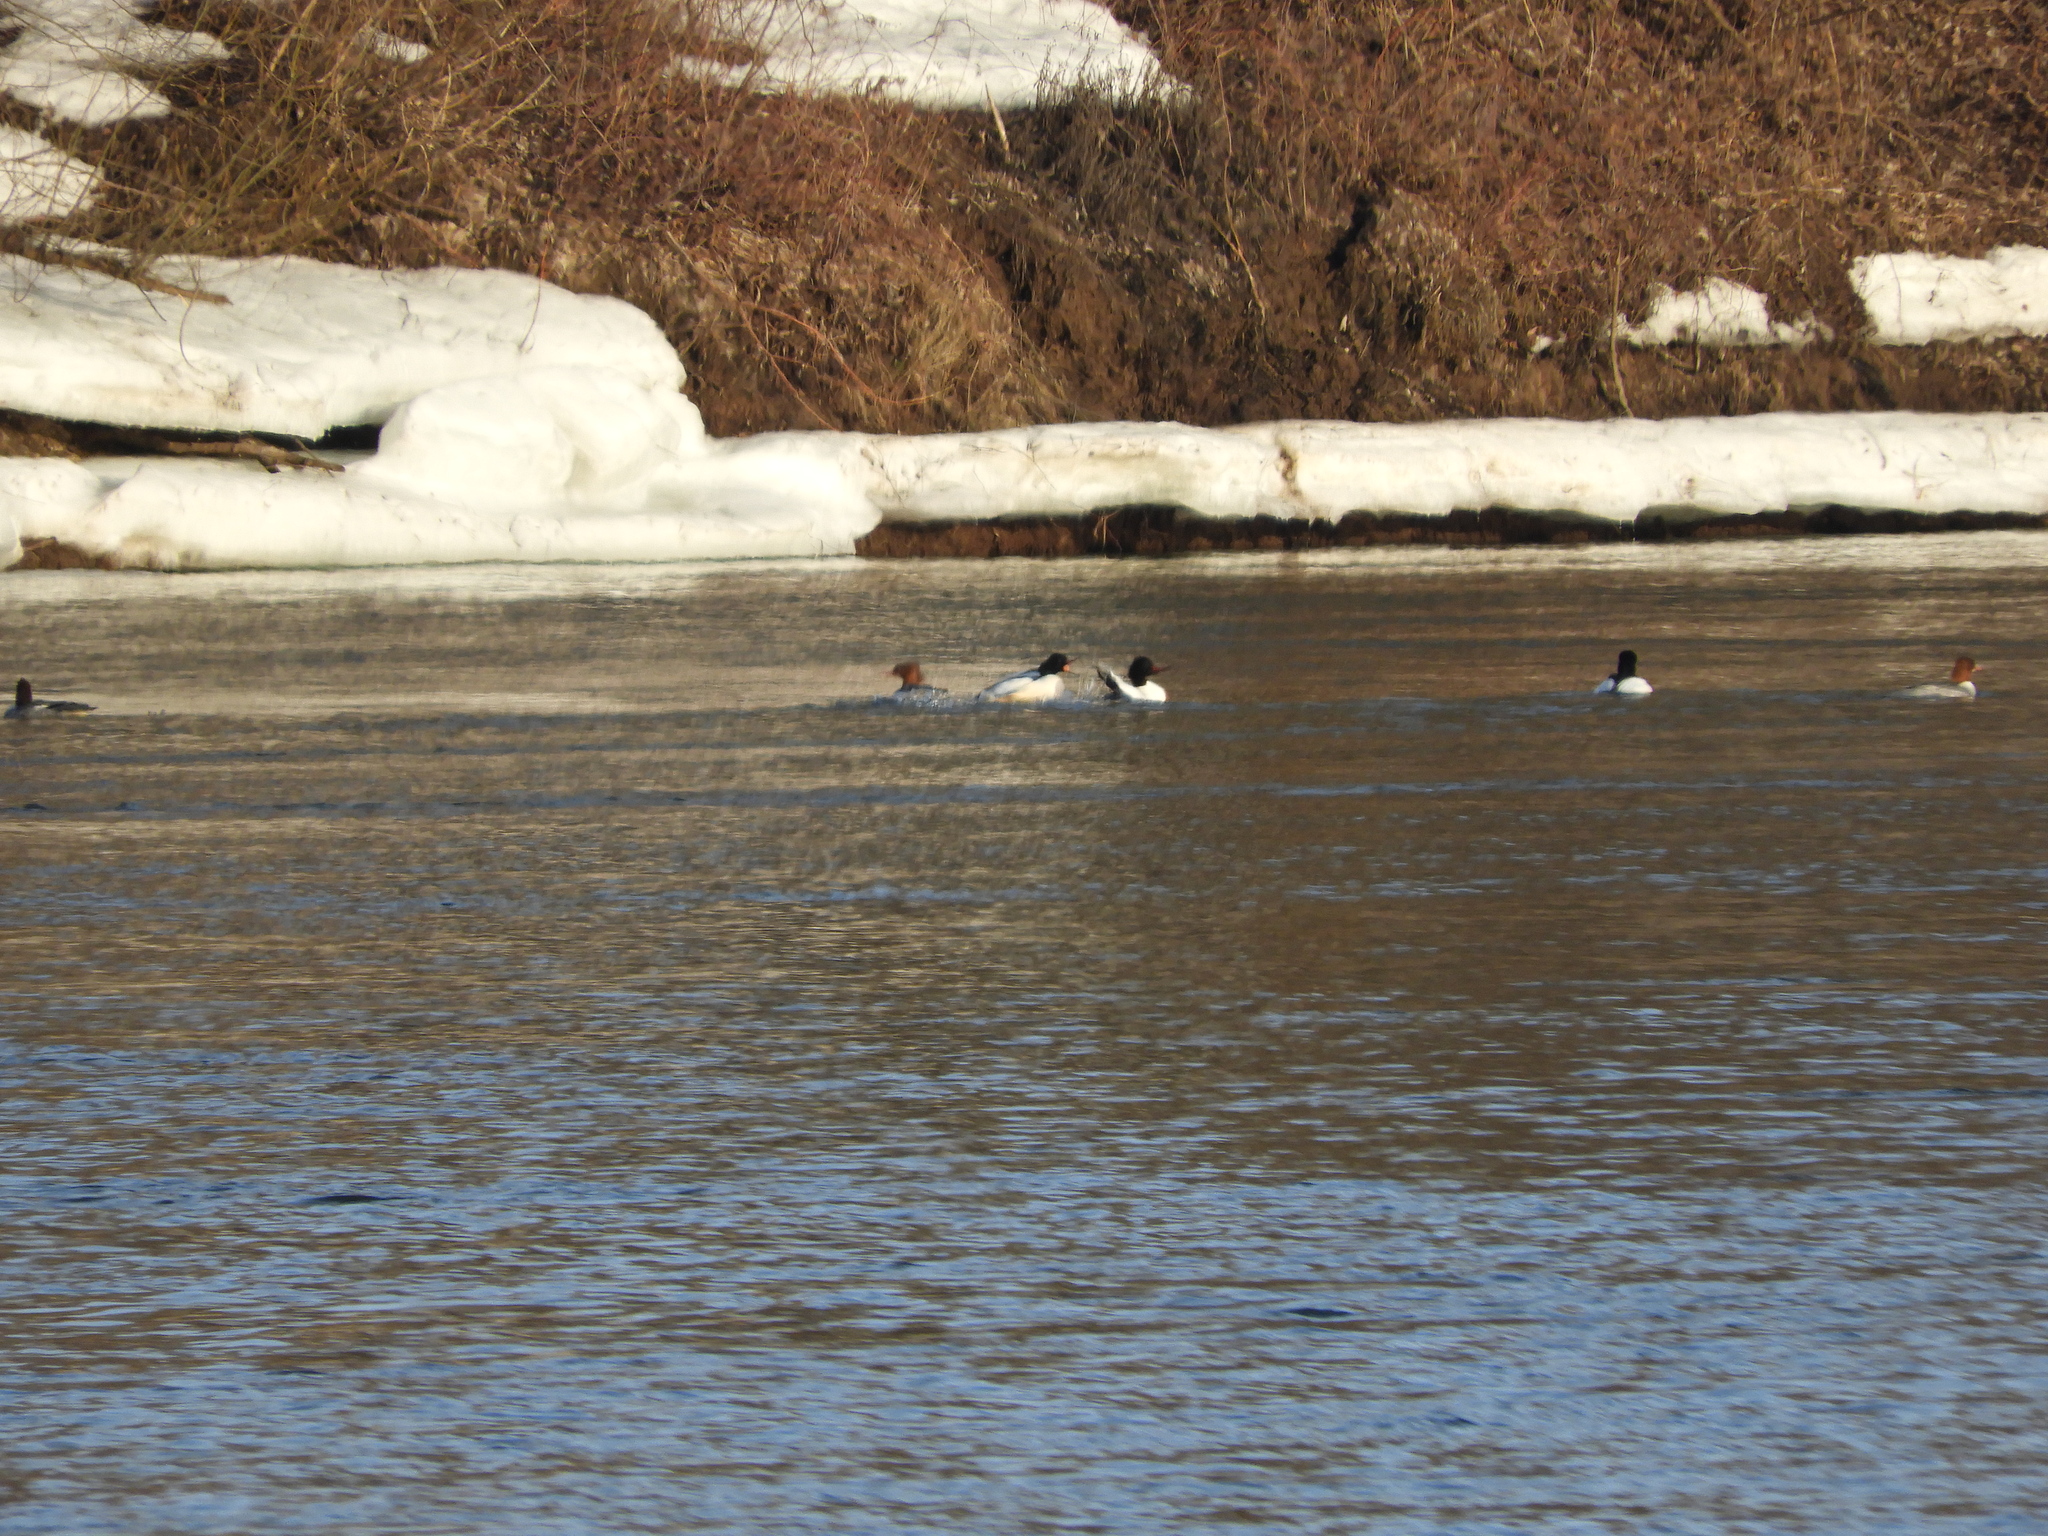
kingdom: Animalia
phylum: Chordata
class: Aves
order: Anseriformes
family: Anatidae
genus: Mergus
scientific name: Mergus merganser
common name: Common merganser
